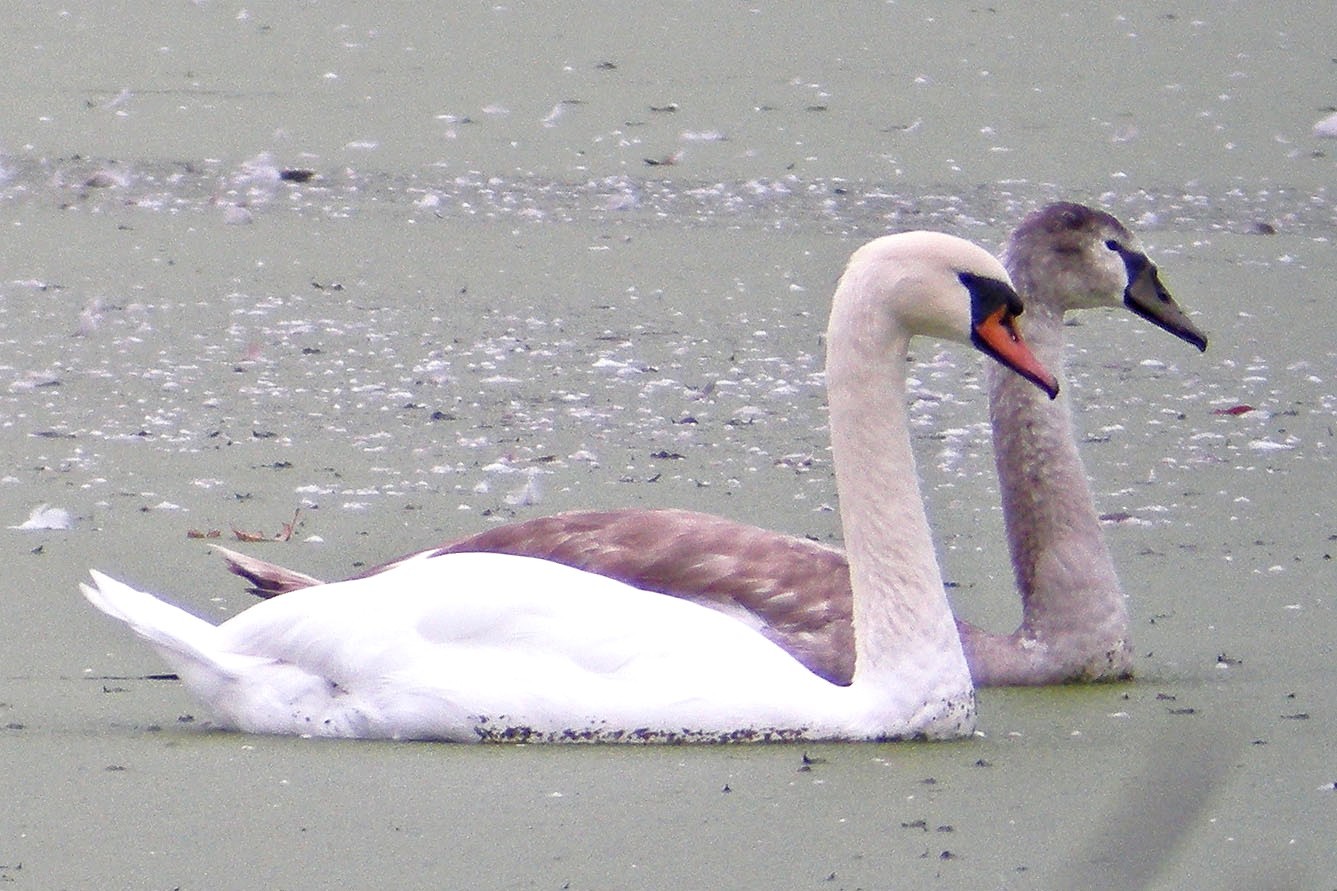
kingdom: Animalia
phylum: Chordata
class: Aves
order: Anseriformes
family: Anatidae
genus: Cygnus
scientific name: Cygnus olor
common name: Mute swan
